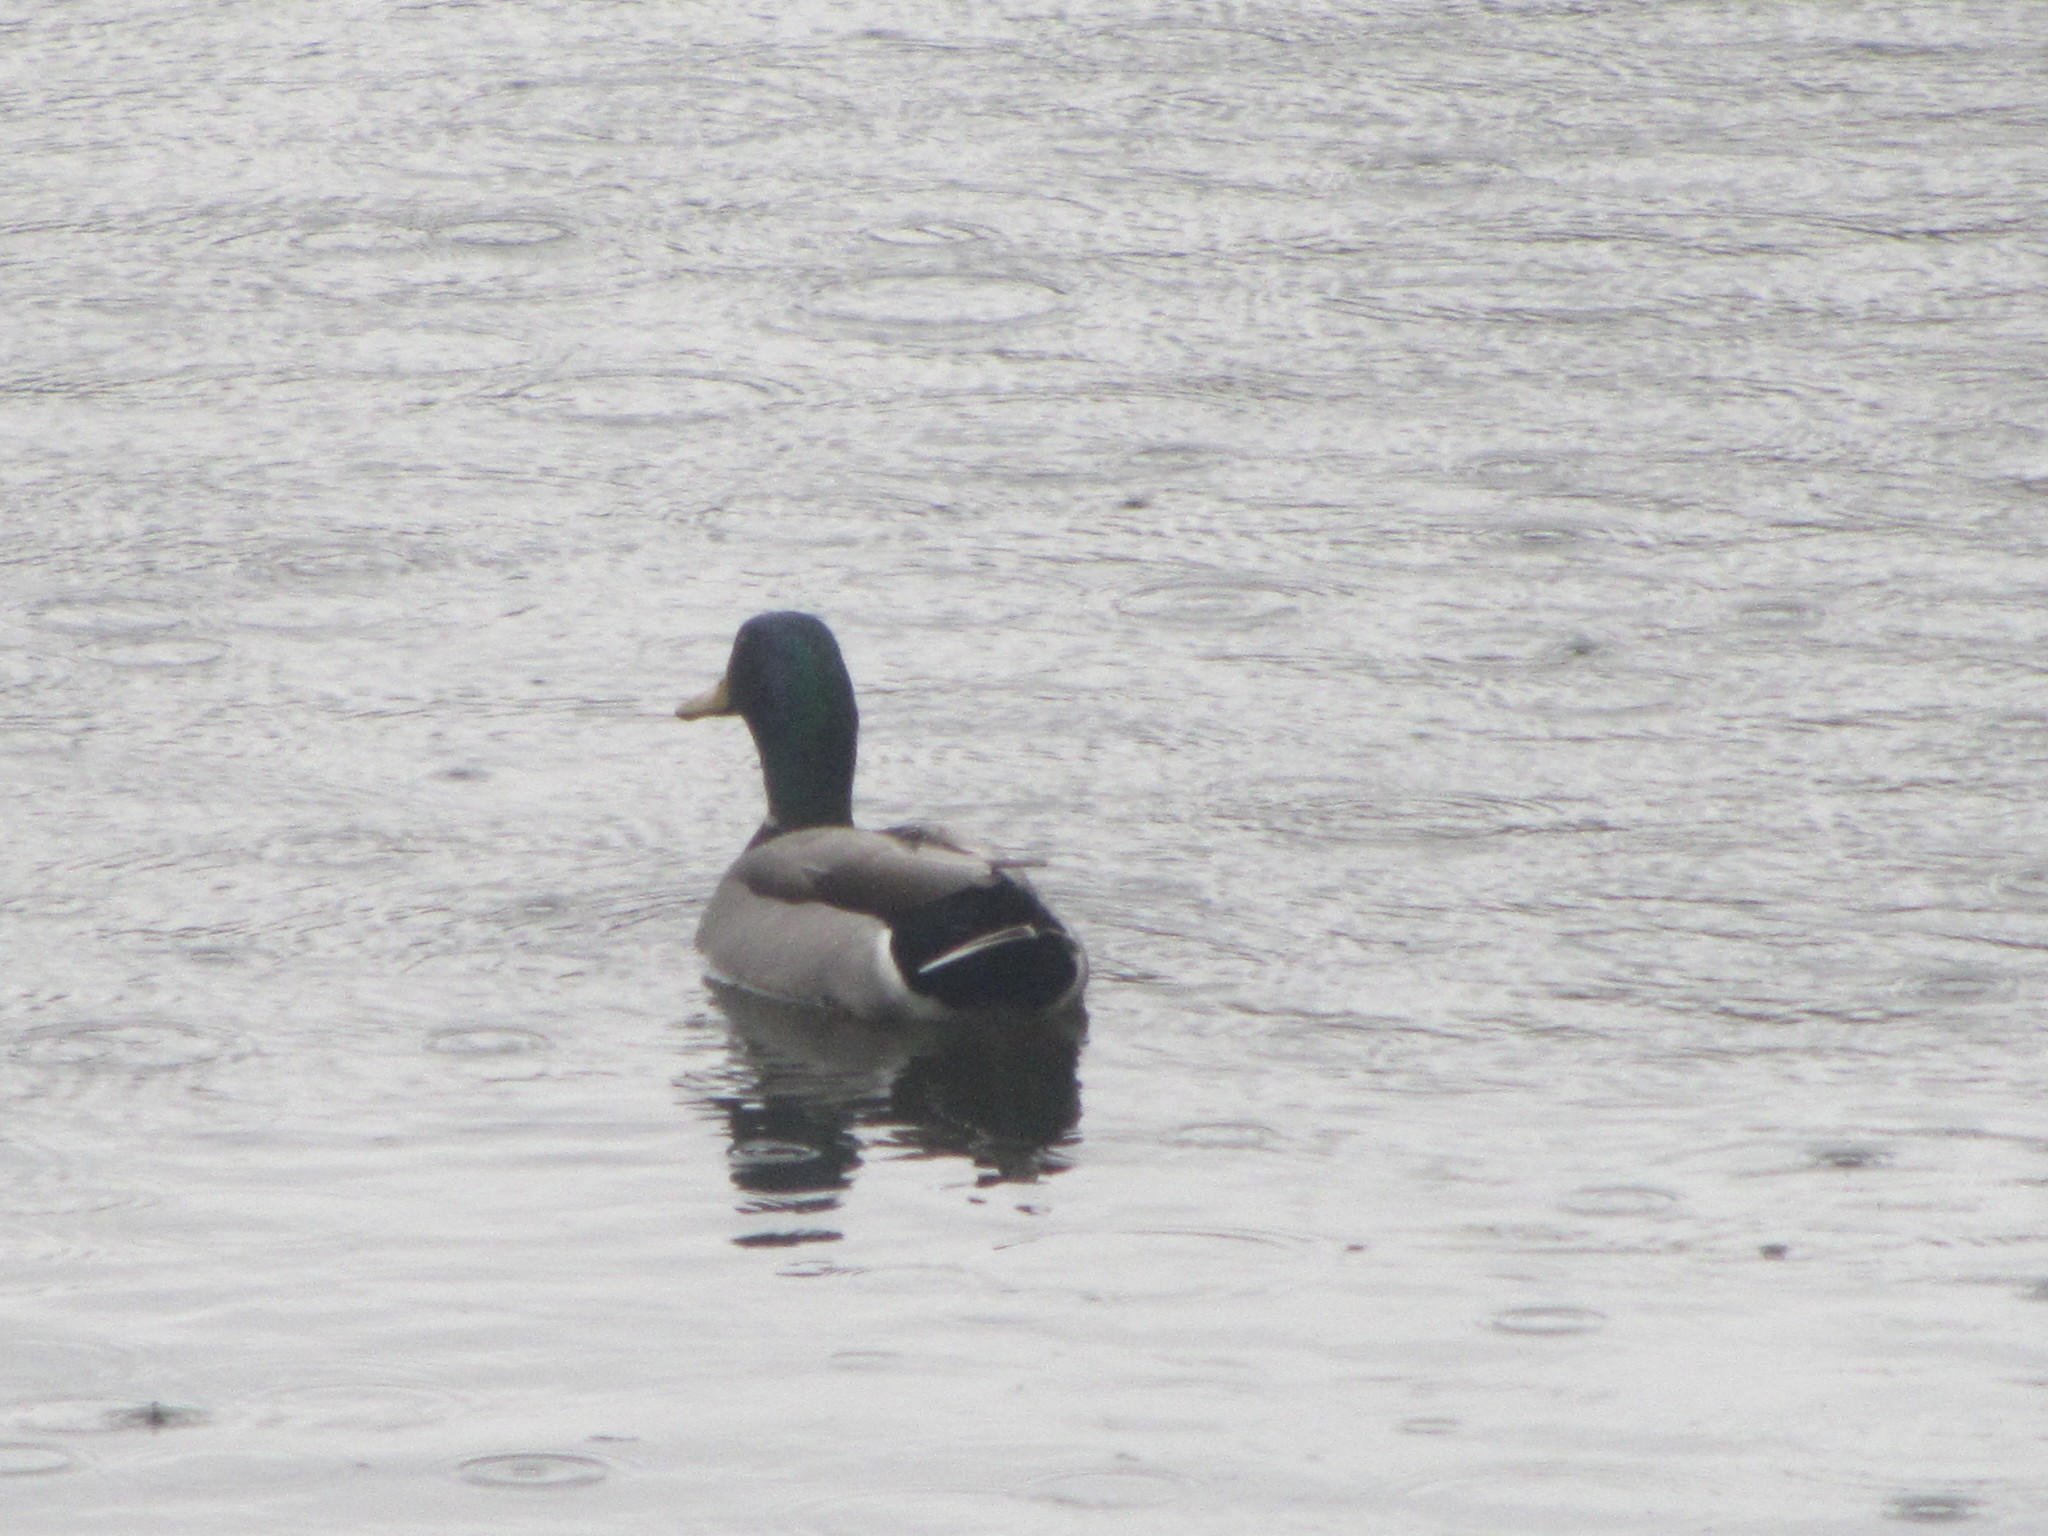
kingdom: Animalia
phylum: Chordata
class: Aves
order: Anseriformes
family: Anatidae
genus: Anas
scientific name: Anas platyrhynchos
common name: Mallard
